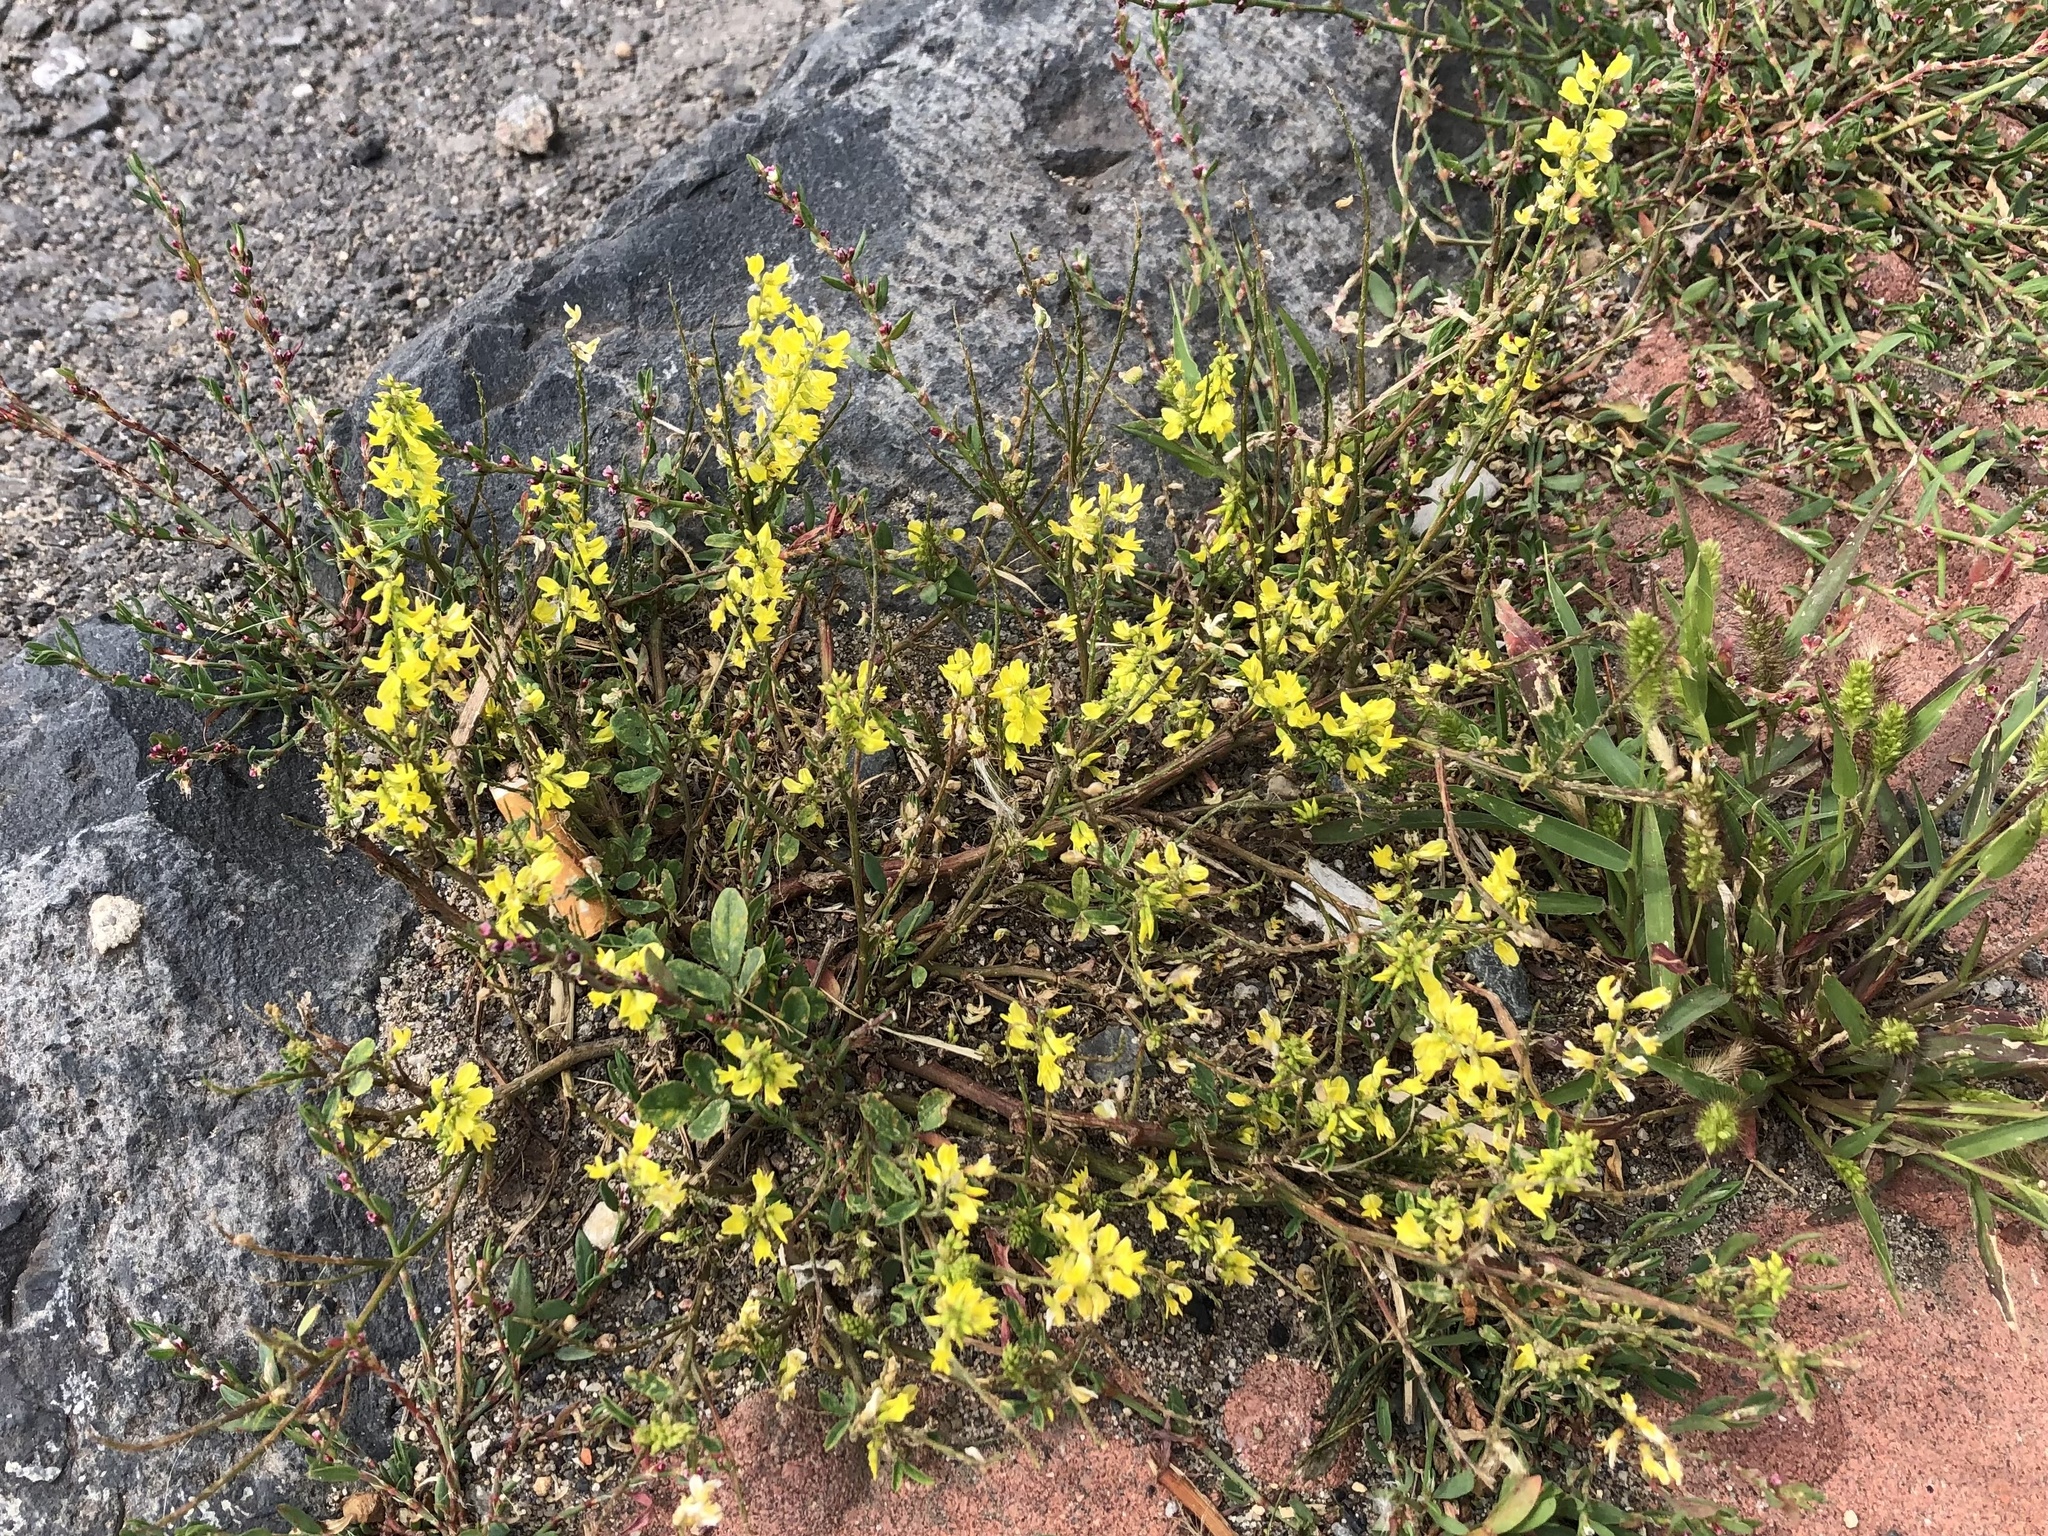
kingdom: Plantae
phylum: Tracheophyta
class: Magnoliopsida
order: Fabales
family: Fabaceae
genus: Melilotus
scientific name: Melilotus officinalis
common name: Sweetclover
